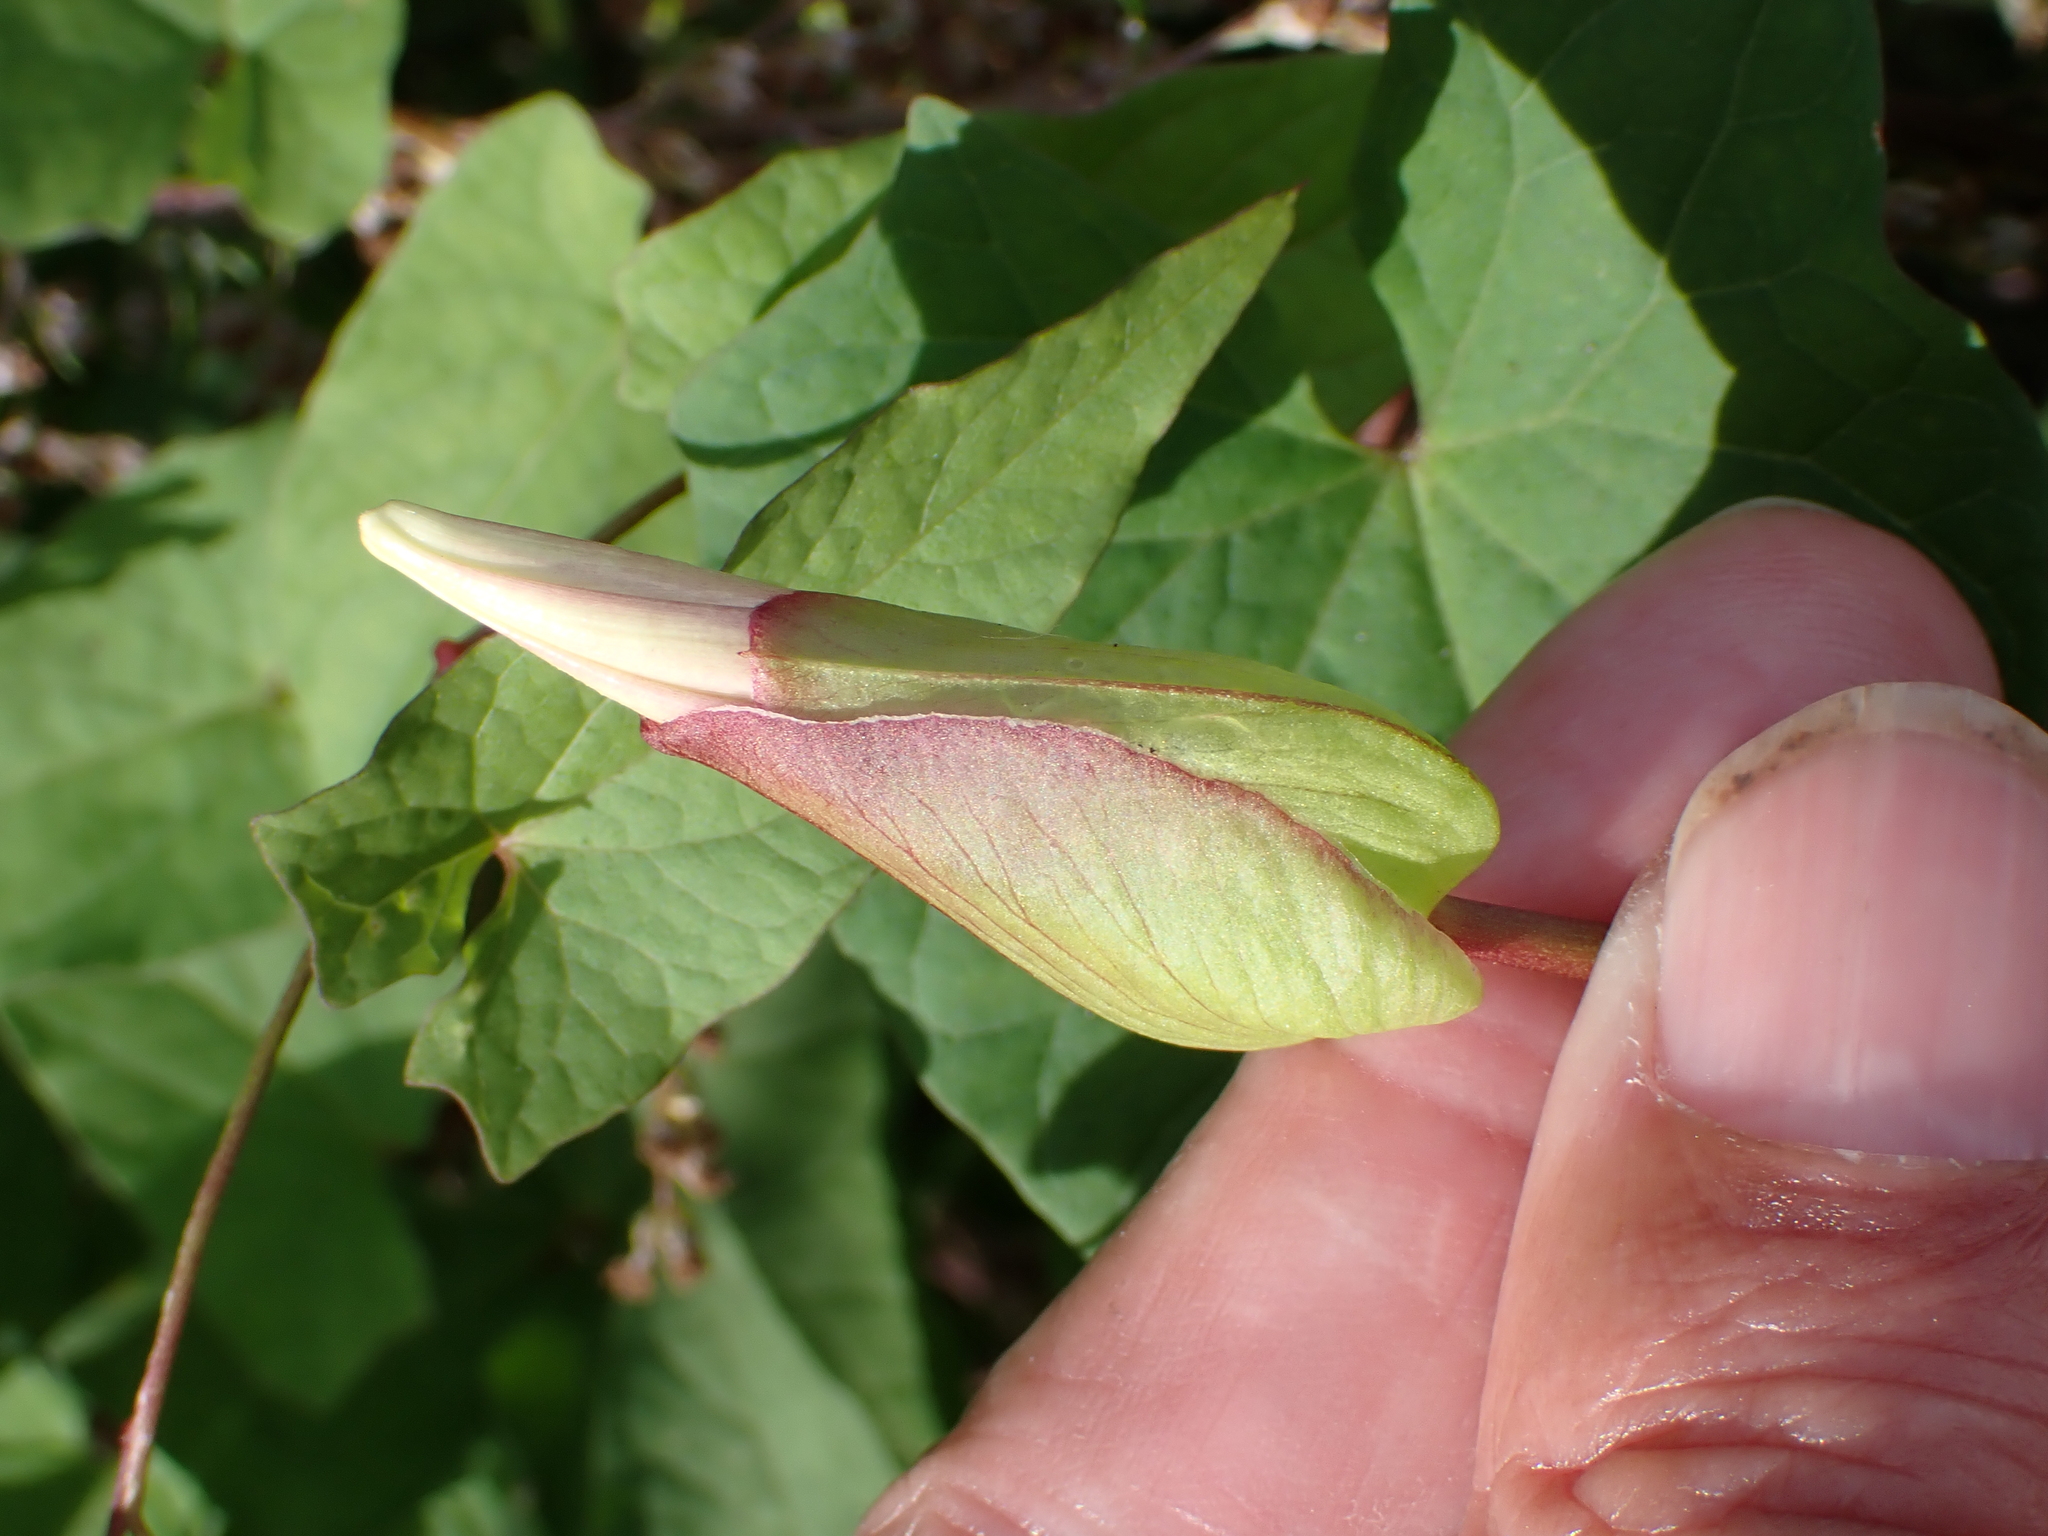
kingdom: Plantae
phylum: Tracheophyta
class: Magnoliopsida
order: Solanales
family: Convolvulaceae
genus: Calystegia
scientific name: Calystegia sepium
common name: Hedge bindweed
